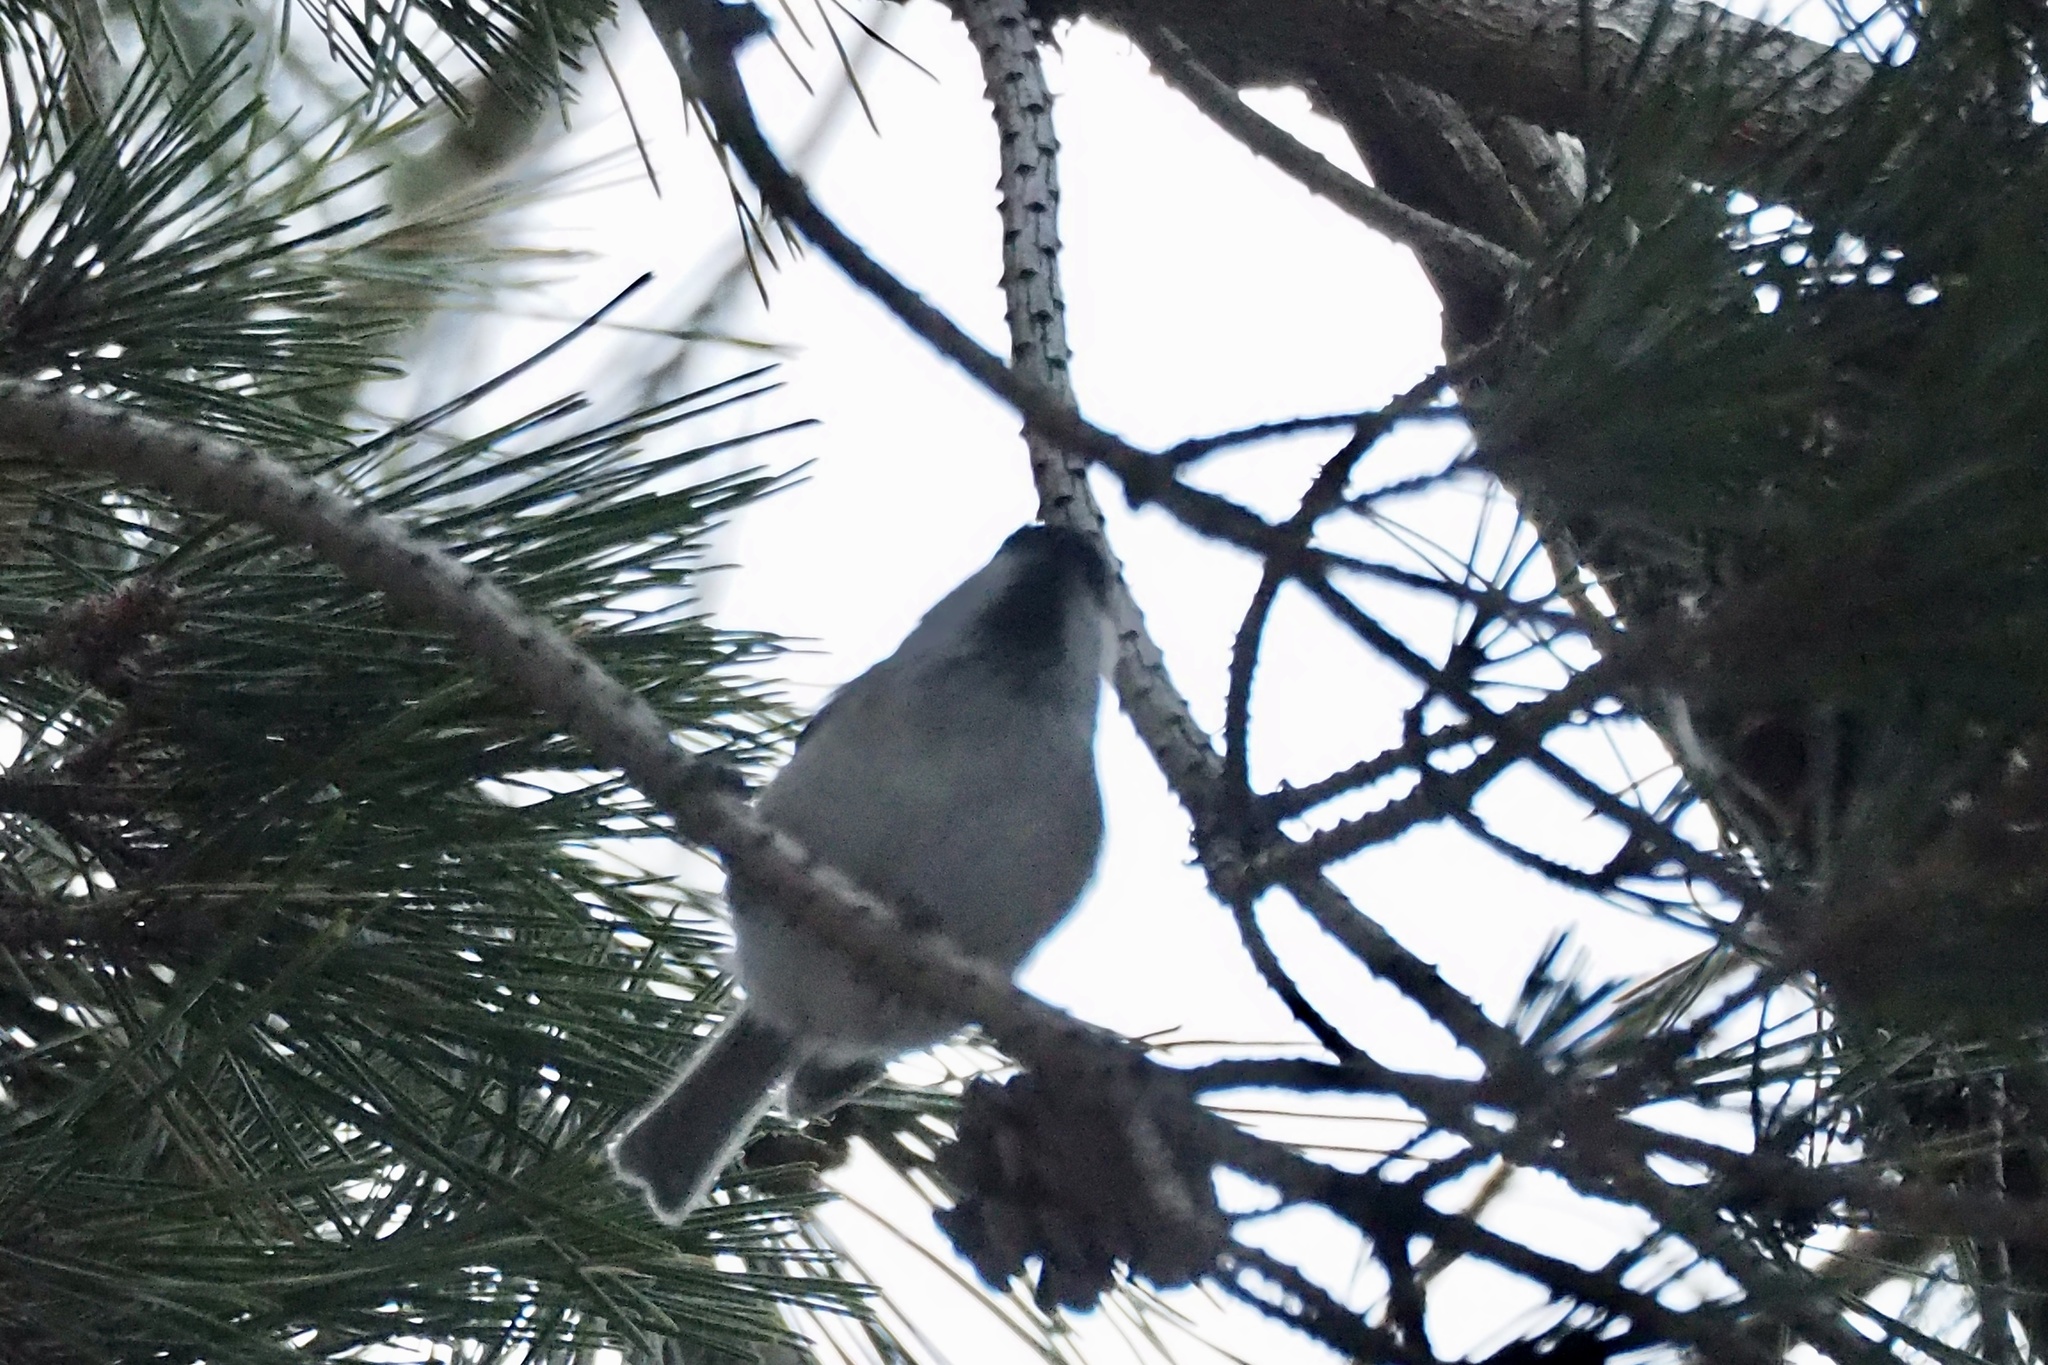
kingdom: Animalia
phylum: Chordata
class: Aves
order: Passeriformes
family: Paridae
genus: Poecile
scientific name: Poecile montanus
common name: Willow tit
